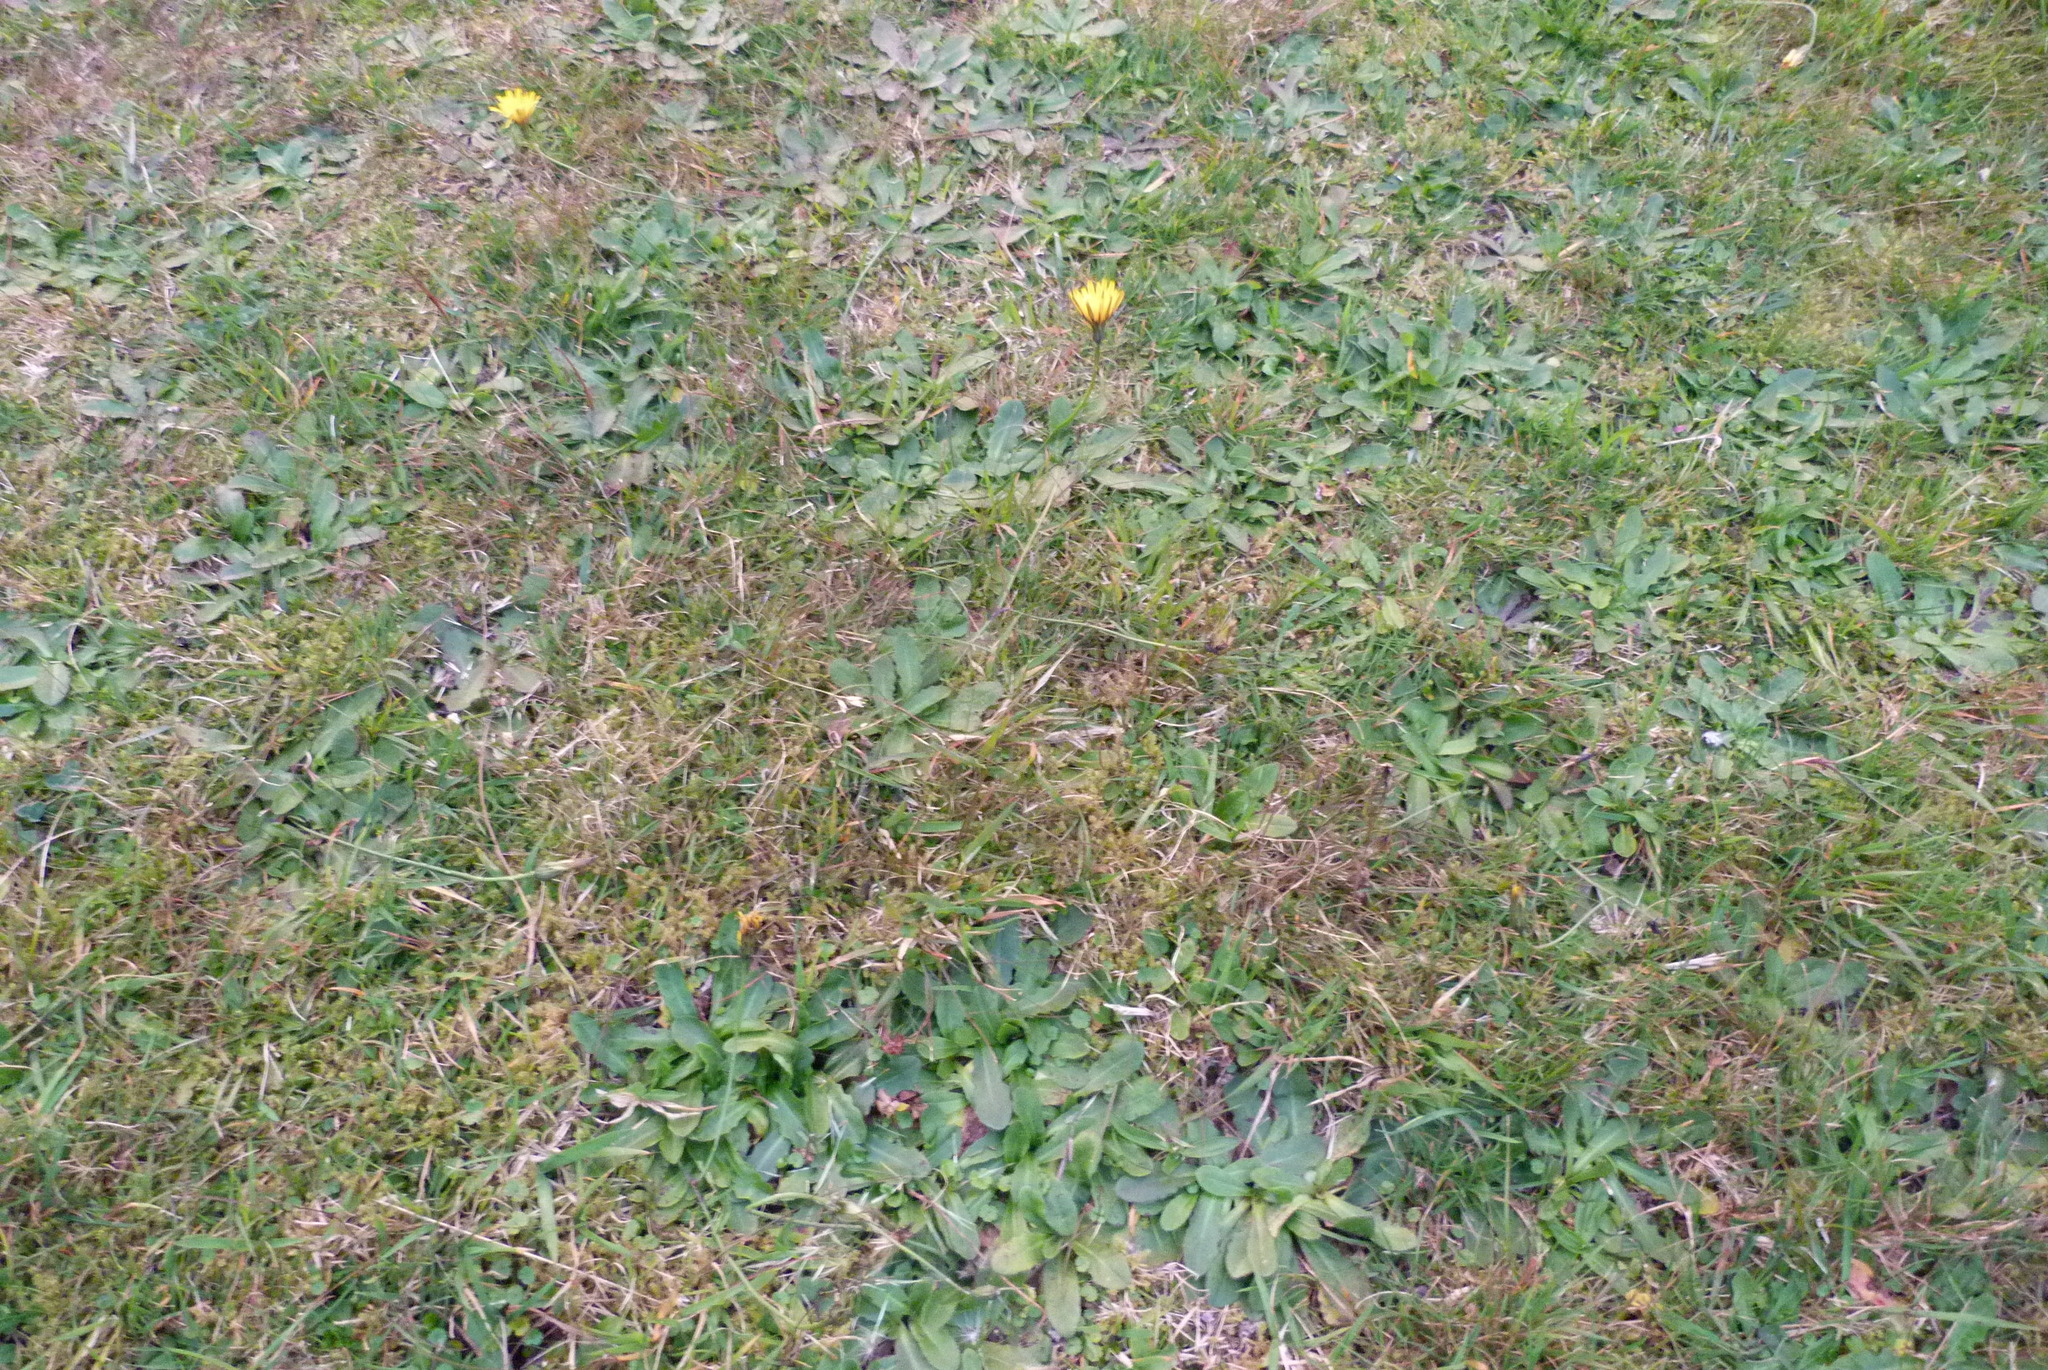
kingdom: Plantae
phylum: Tracheophyta
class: Magnoliopsida
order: Asterales
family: Asteraceae
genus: Hypochaeris
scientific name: Hypochaeris radicata
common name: Flatweed
